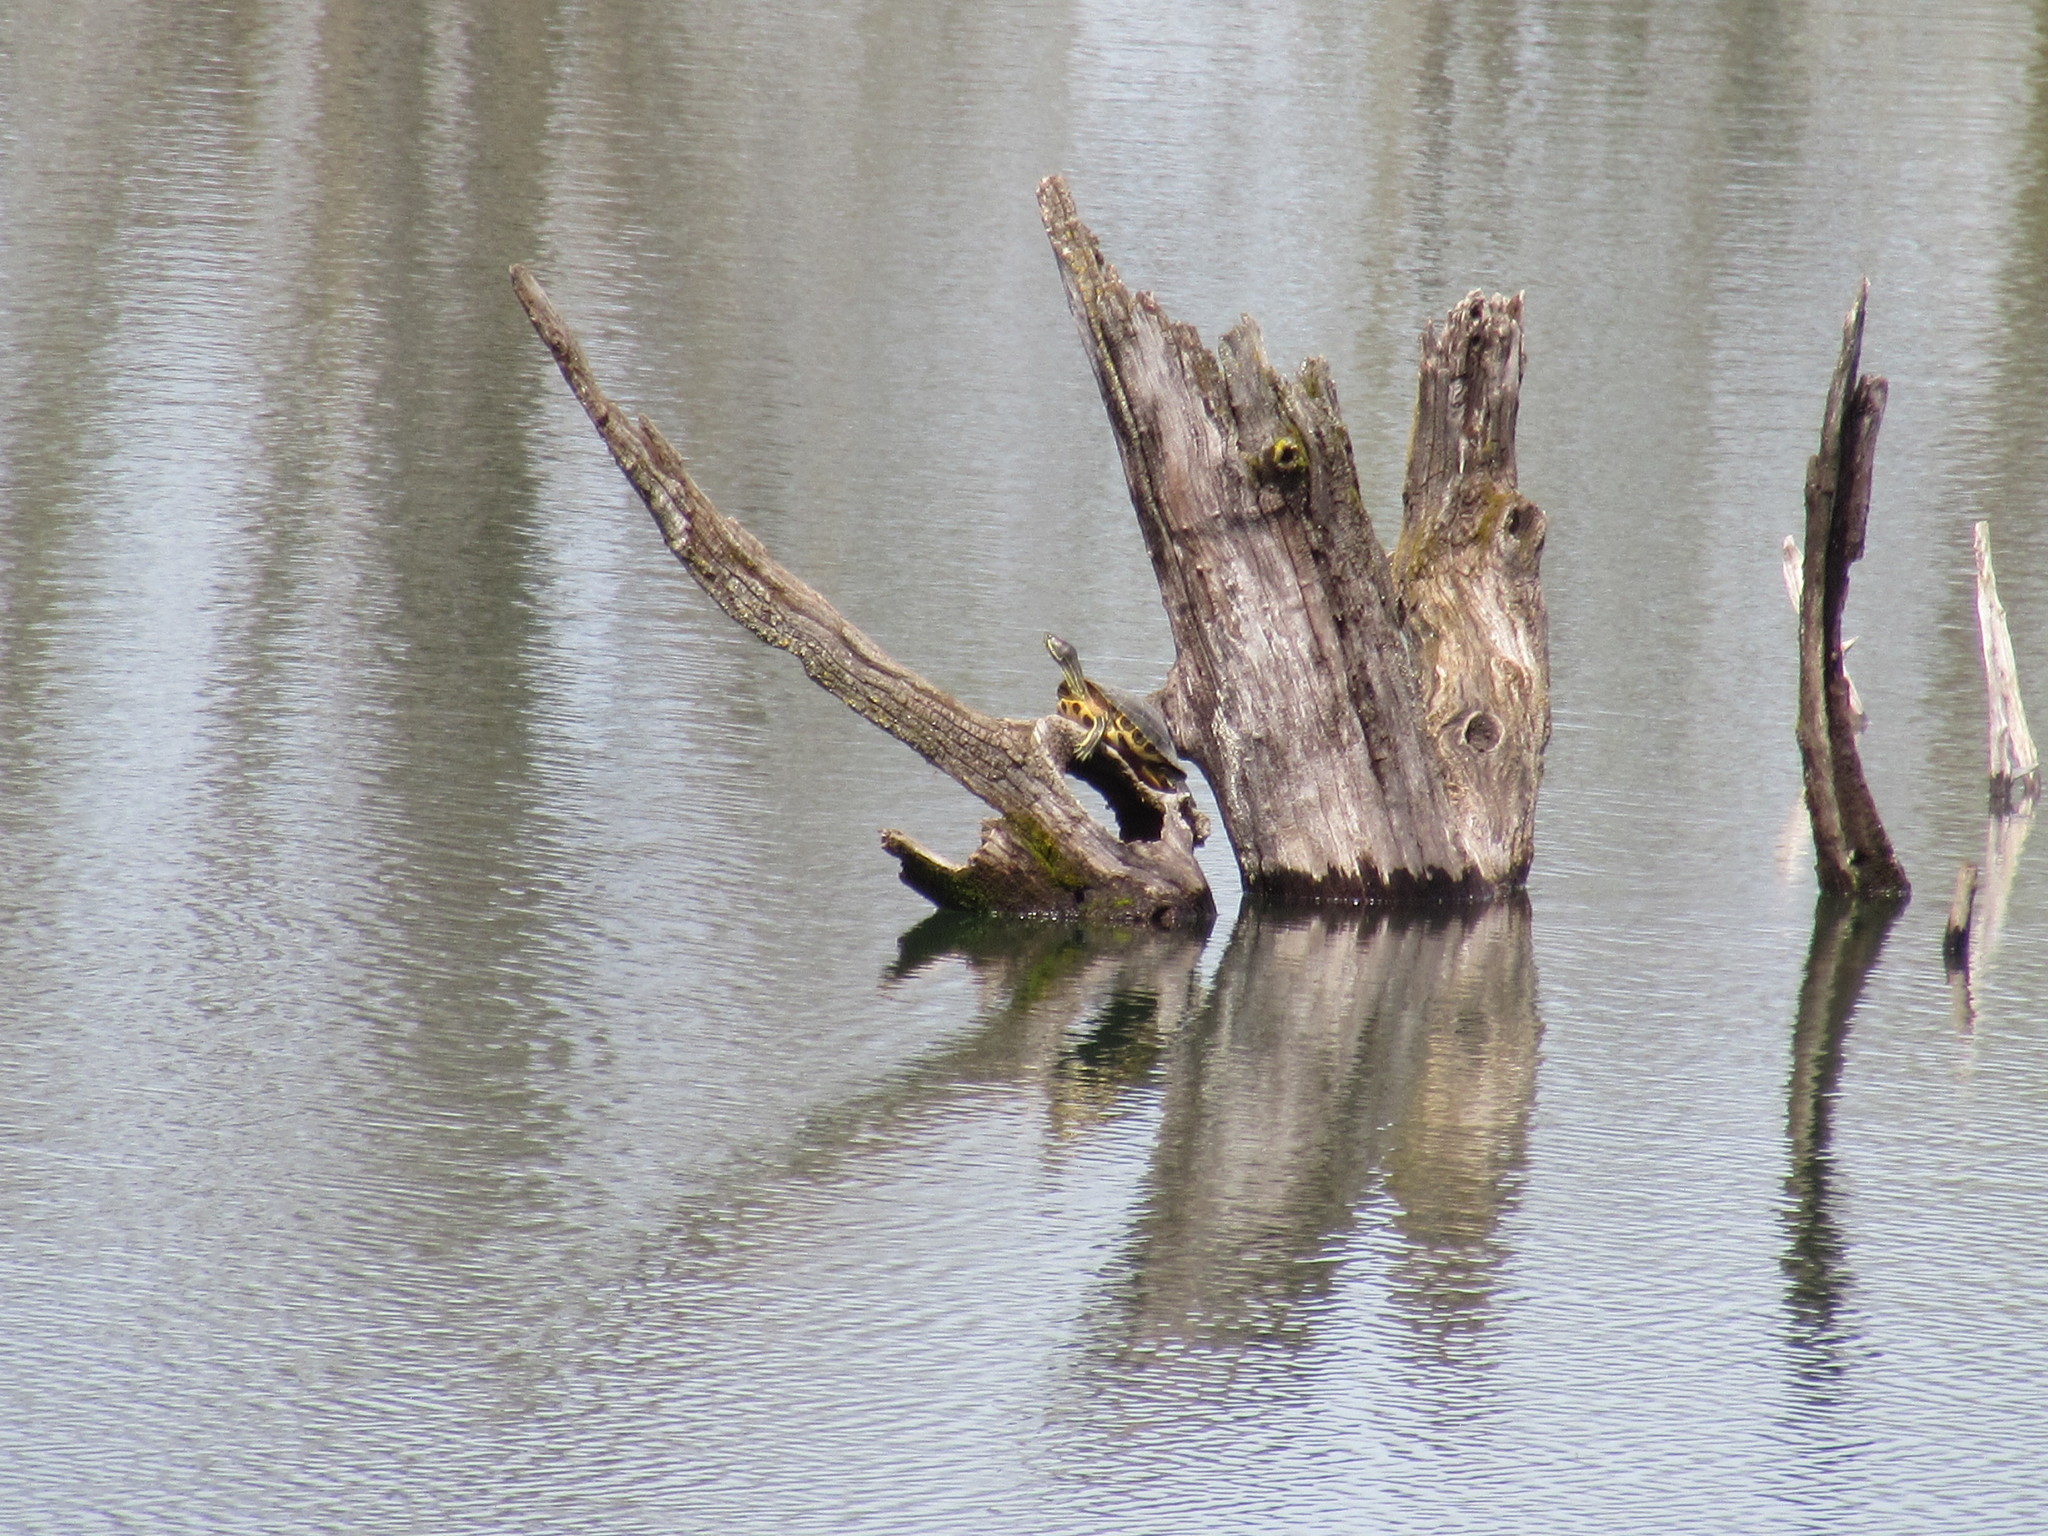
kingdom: Animalia
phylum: Chordata
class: Testudines
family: Emydidae
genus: Trachemys
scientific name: Trachemys scripta
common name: Slider
